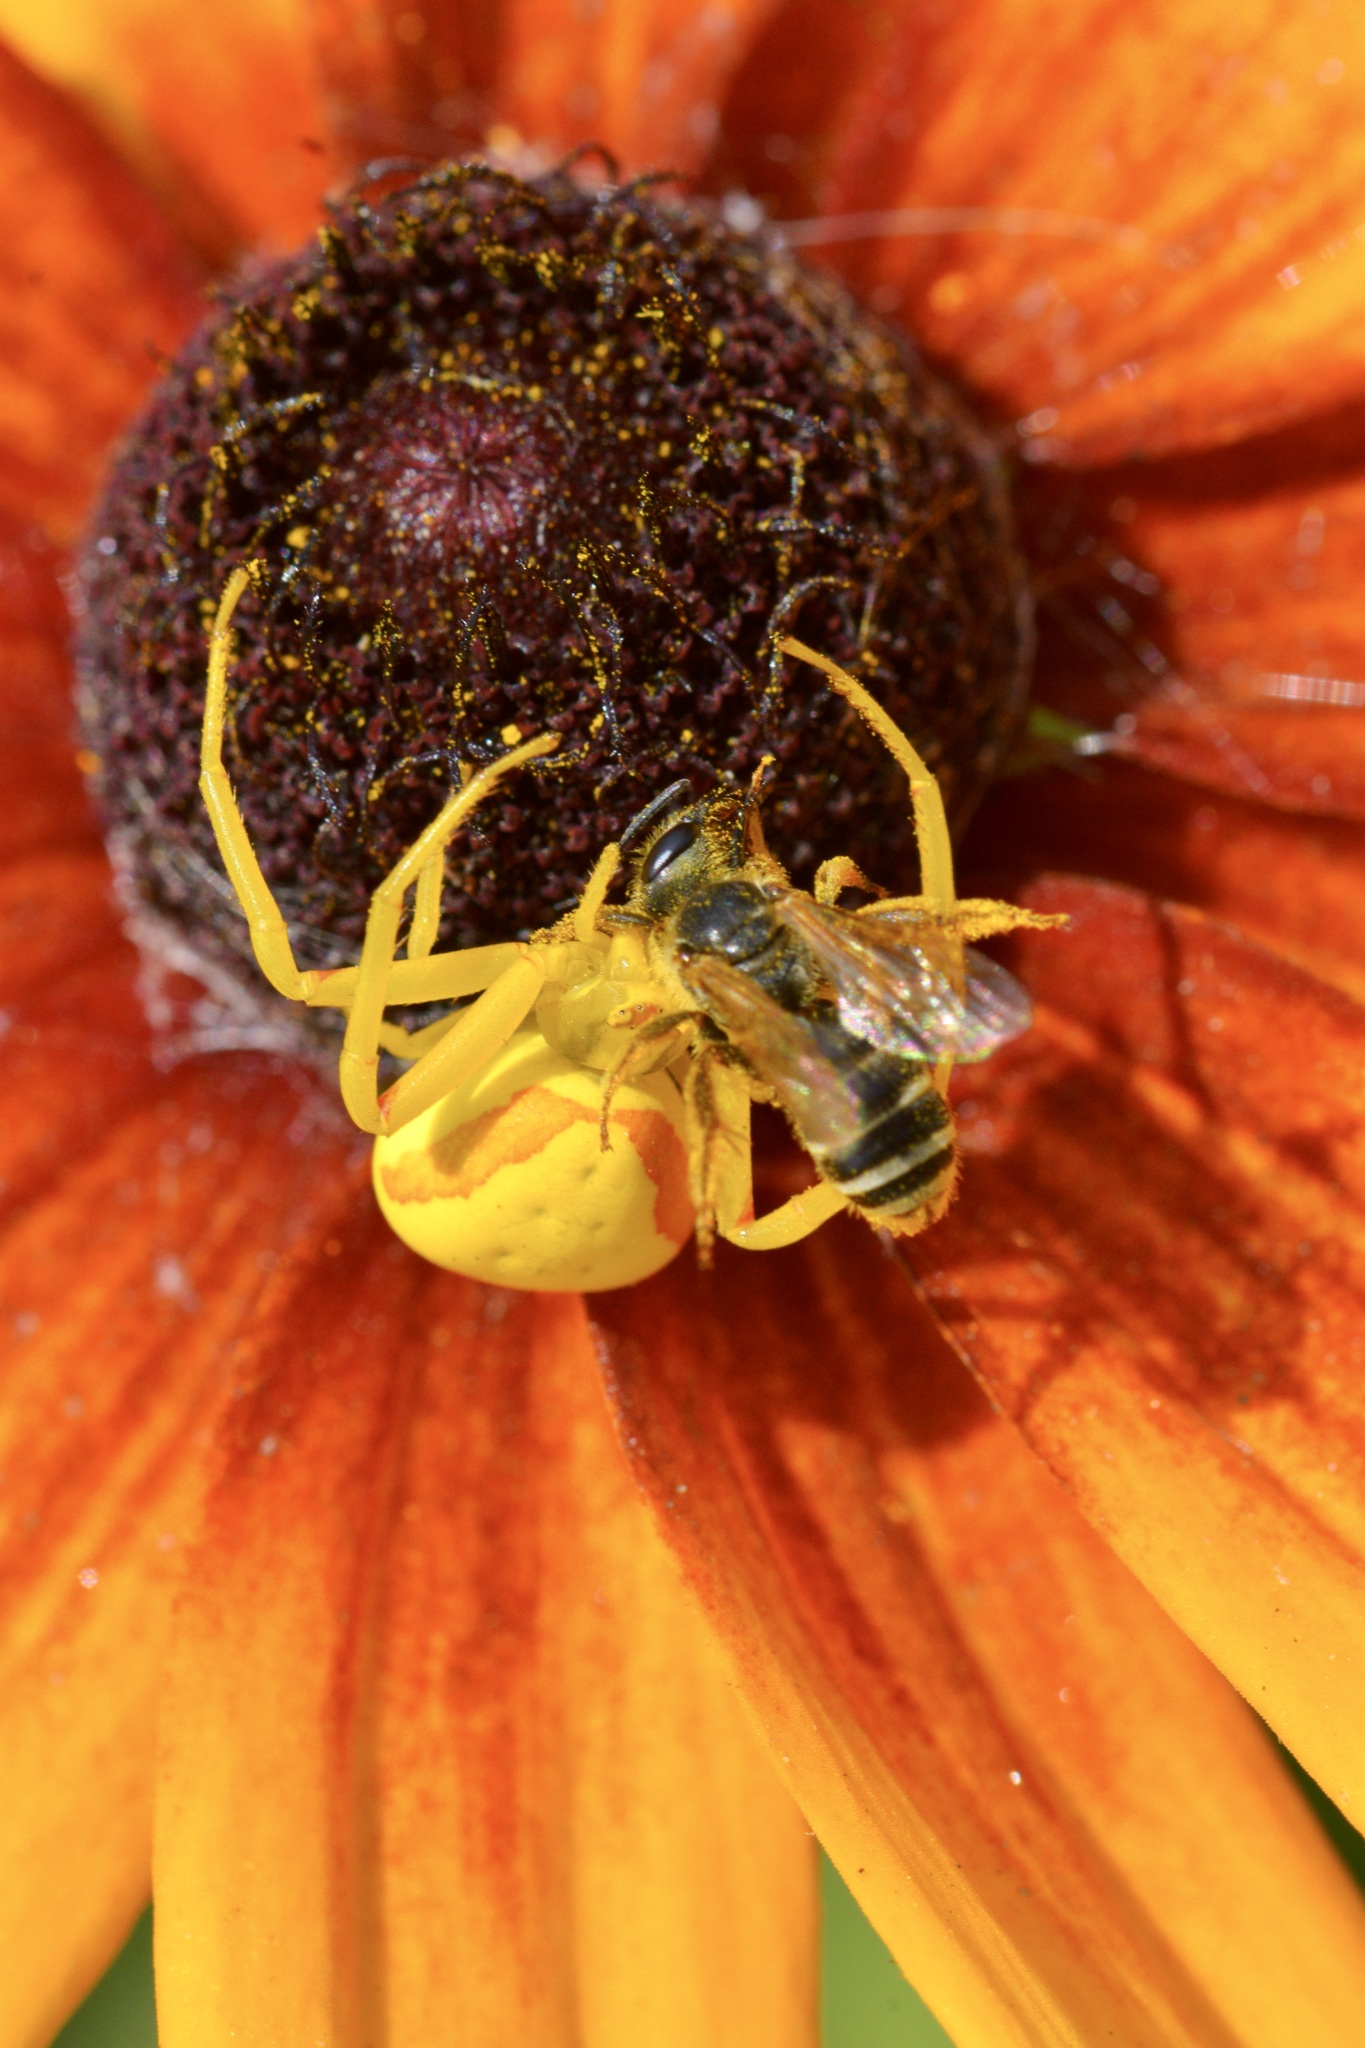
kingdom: Animalia
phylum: Arthropoda
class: Arachnida
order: Araneae
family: Thomisidae
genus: Misumena
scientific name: Misumena vatia
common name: Goldenrod crab spider
